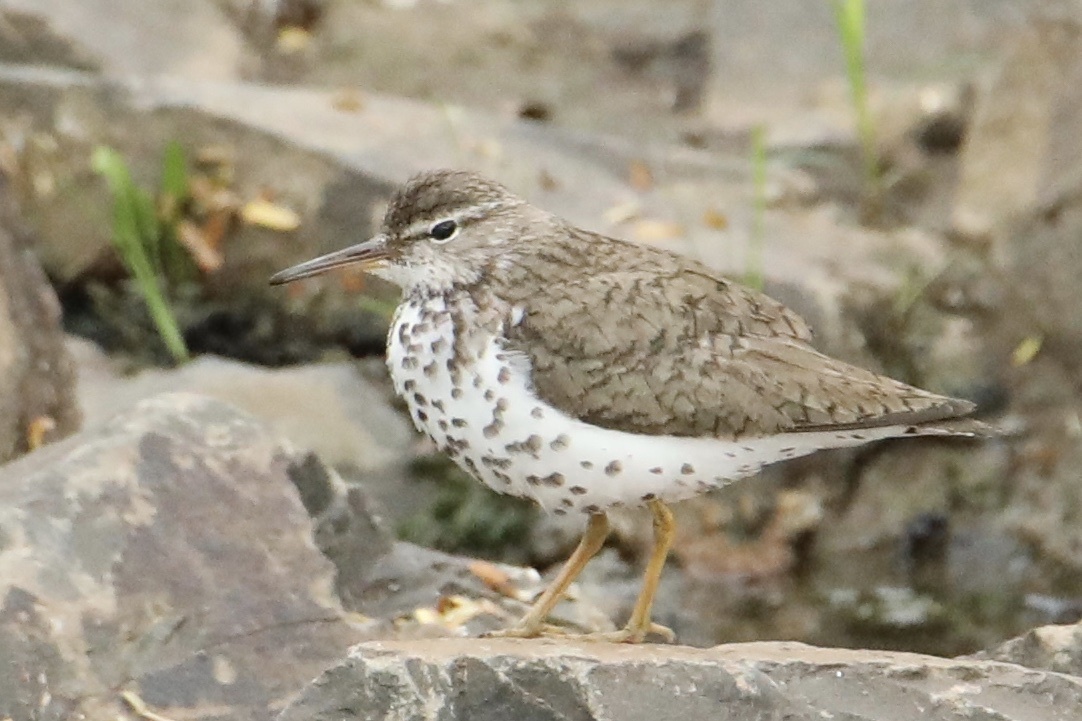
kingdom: Animalia
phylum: Chordata
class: Aves
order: Charadriiformes
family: Scolopacidae
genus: Actitis
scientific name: Actitis macularius
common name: Spotted sandpiper
